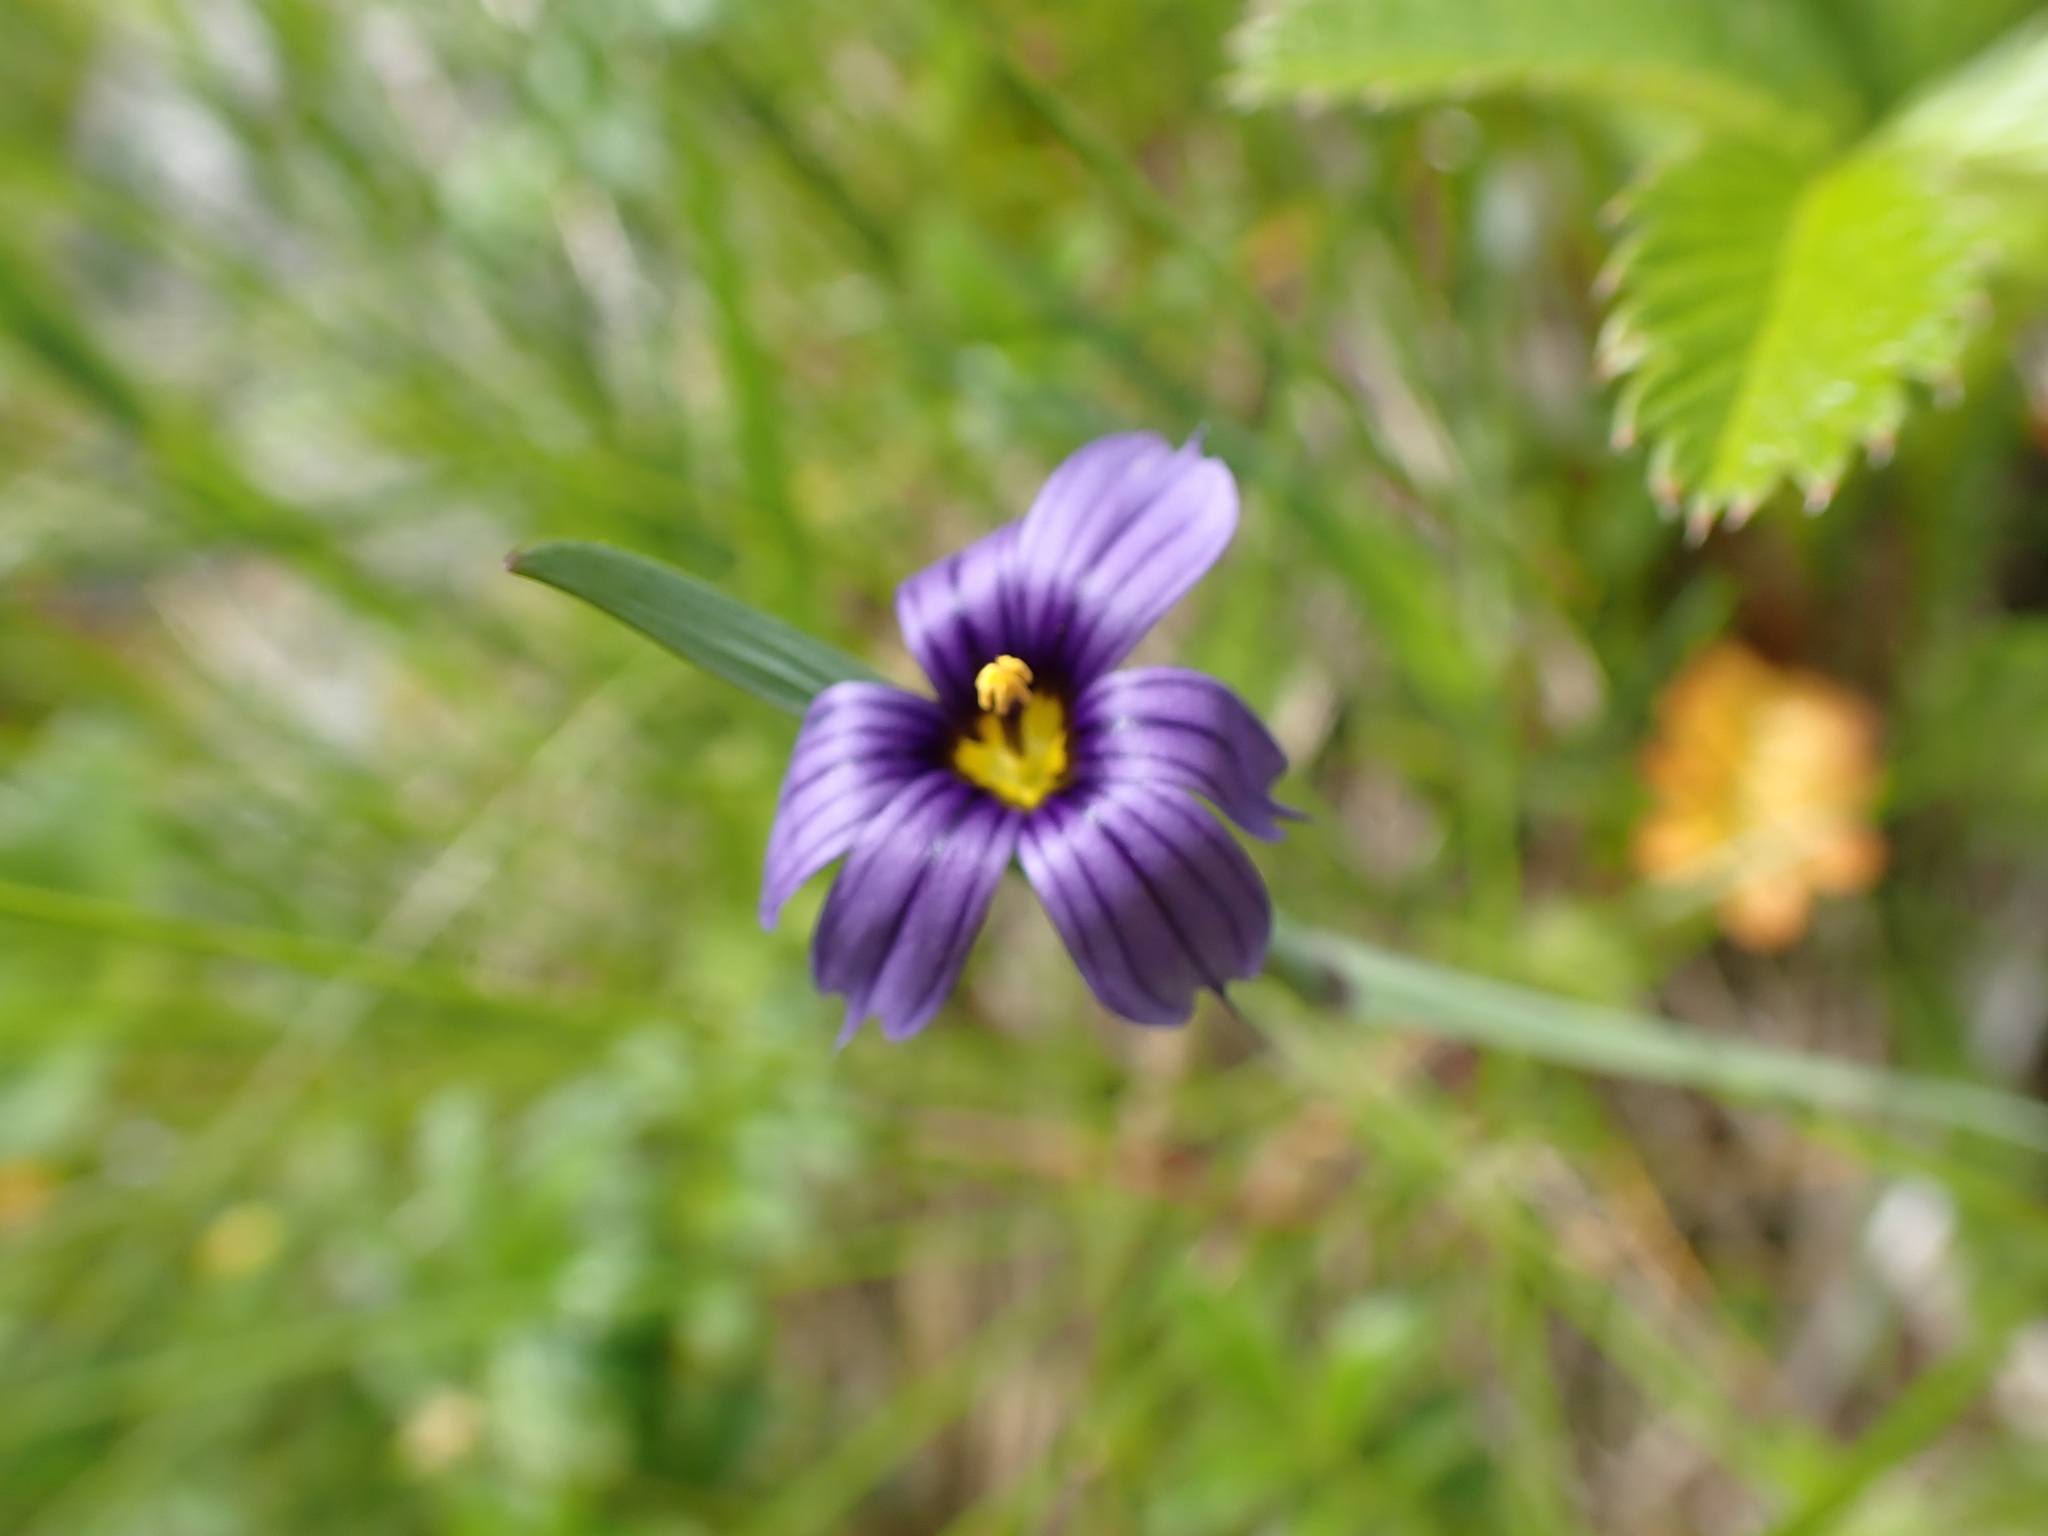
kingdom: Plantae
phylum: Tracheophyta
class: Liliopsida
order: Asparagales
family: Iridaceae
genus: Sisyrinchium
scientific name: Sisyrinchium littorale
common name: Alaska blue-eyed-grass
